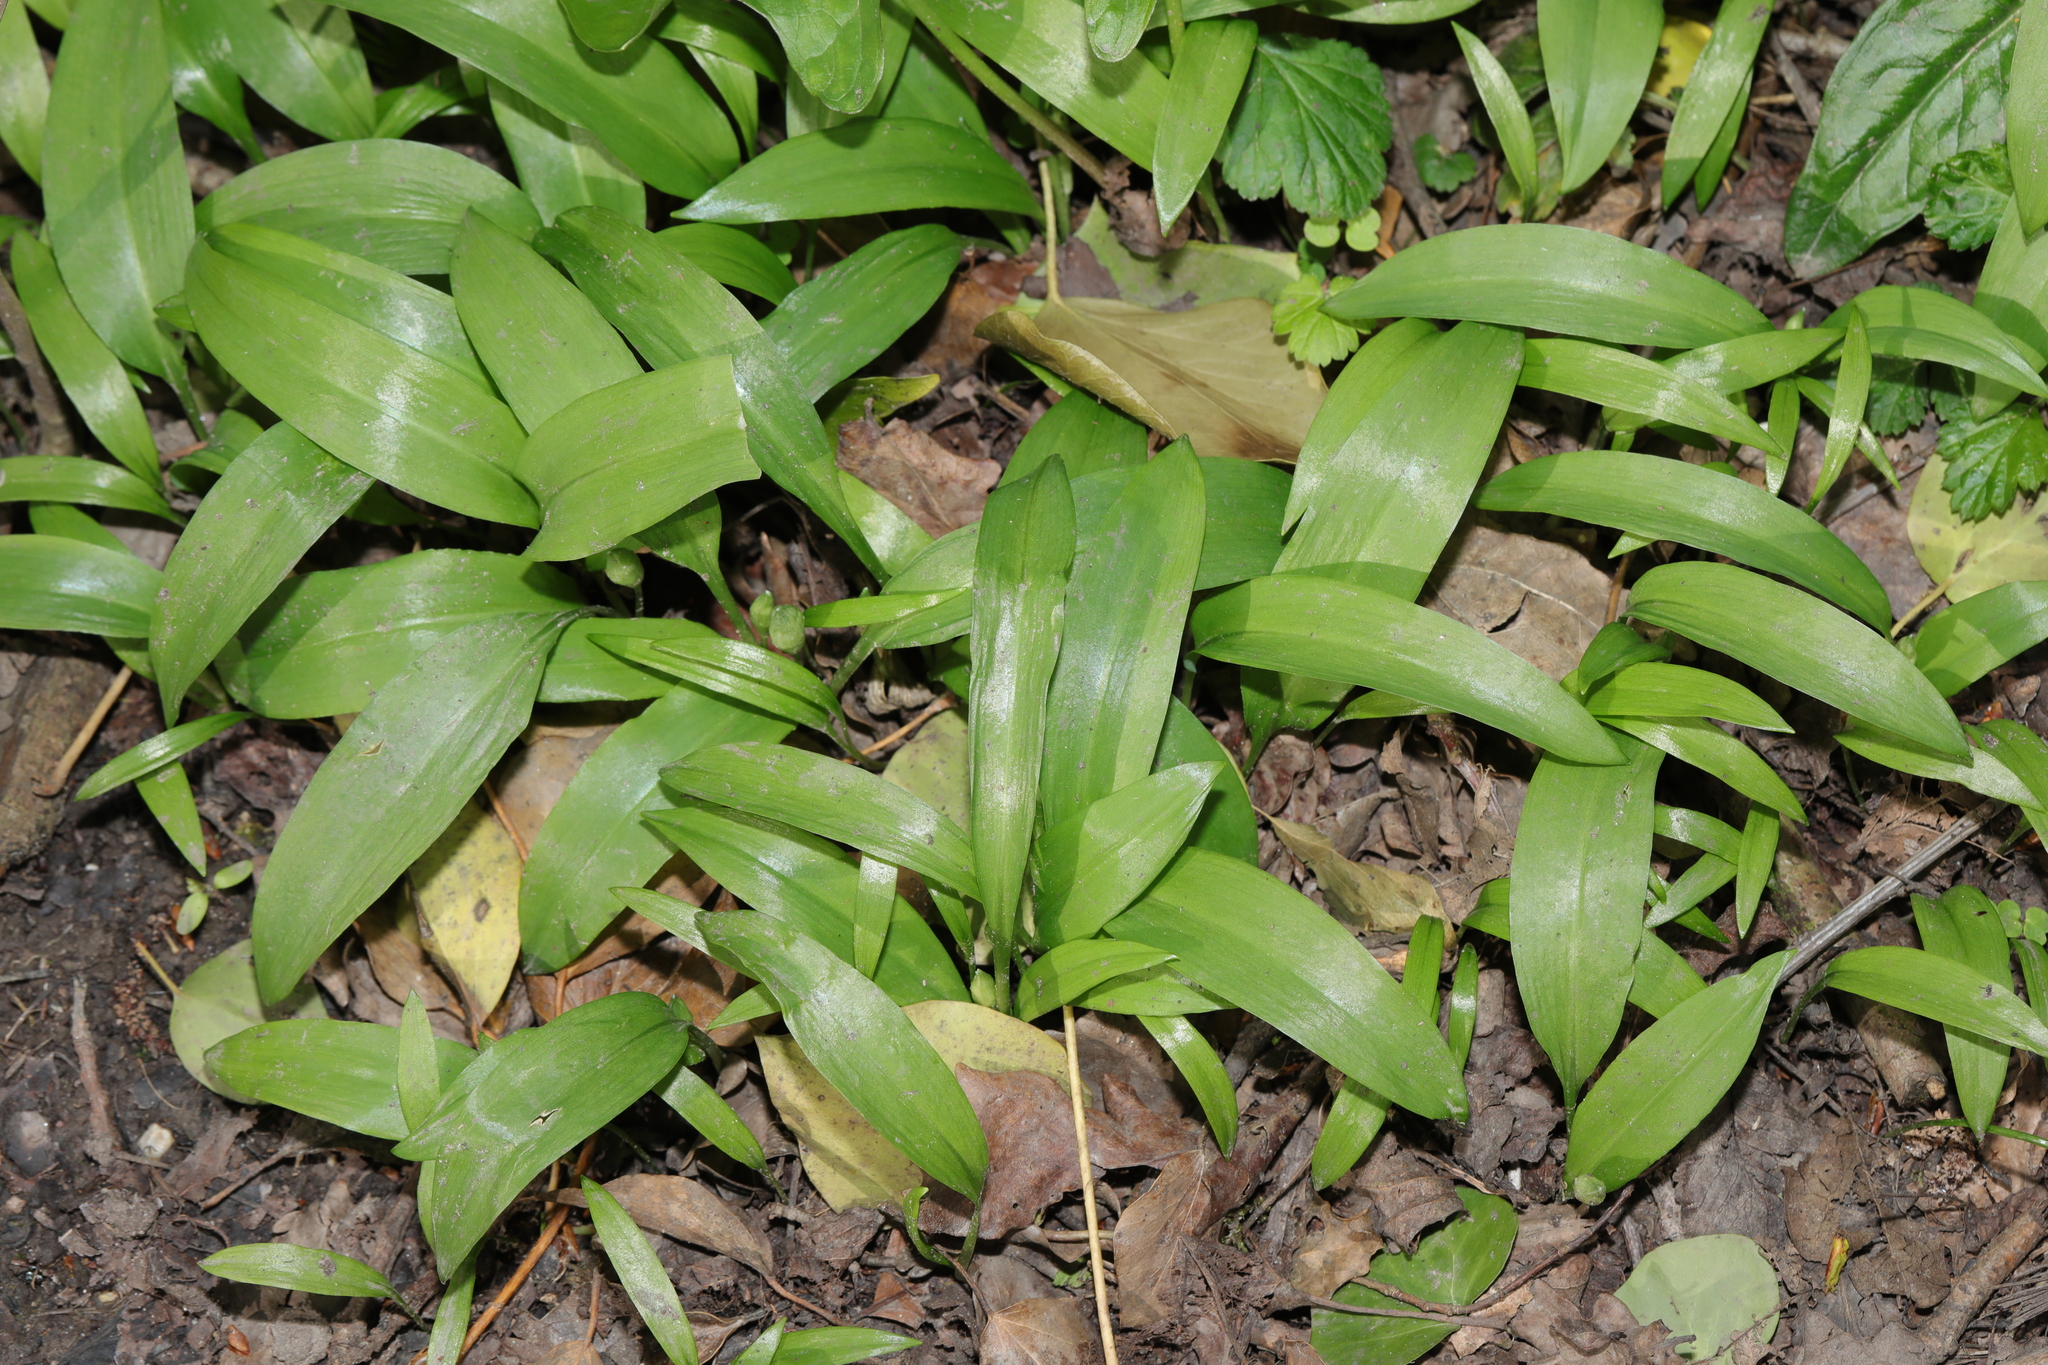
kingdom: Plantae
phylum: Tracheophyta
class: Liliopsida
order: Asparagales
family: Amaryllidaceae
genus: Allium
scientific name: Allium ursinum
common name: Ramsons
